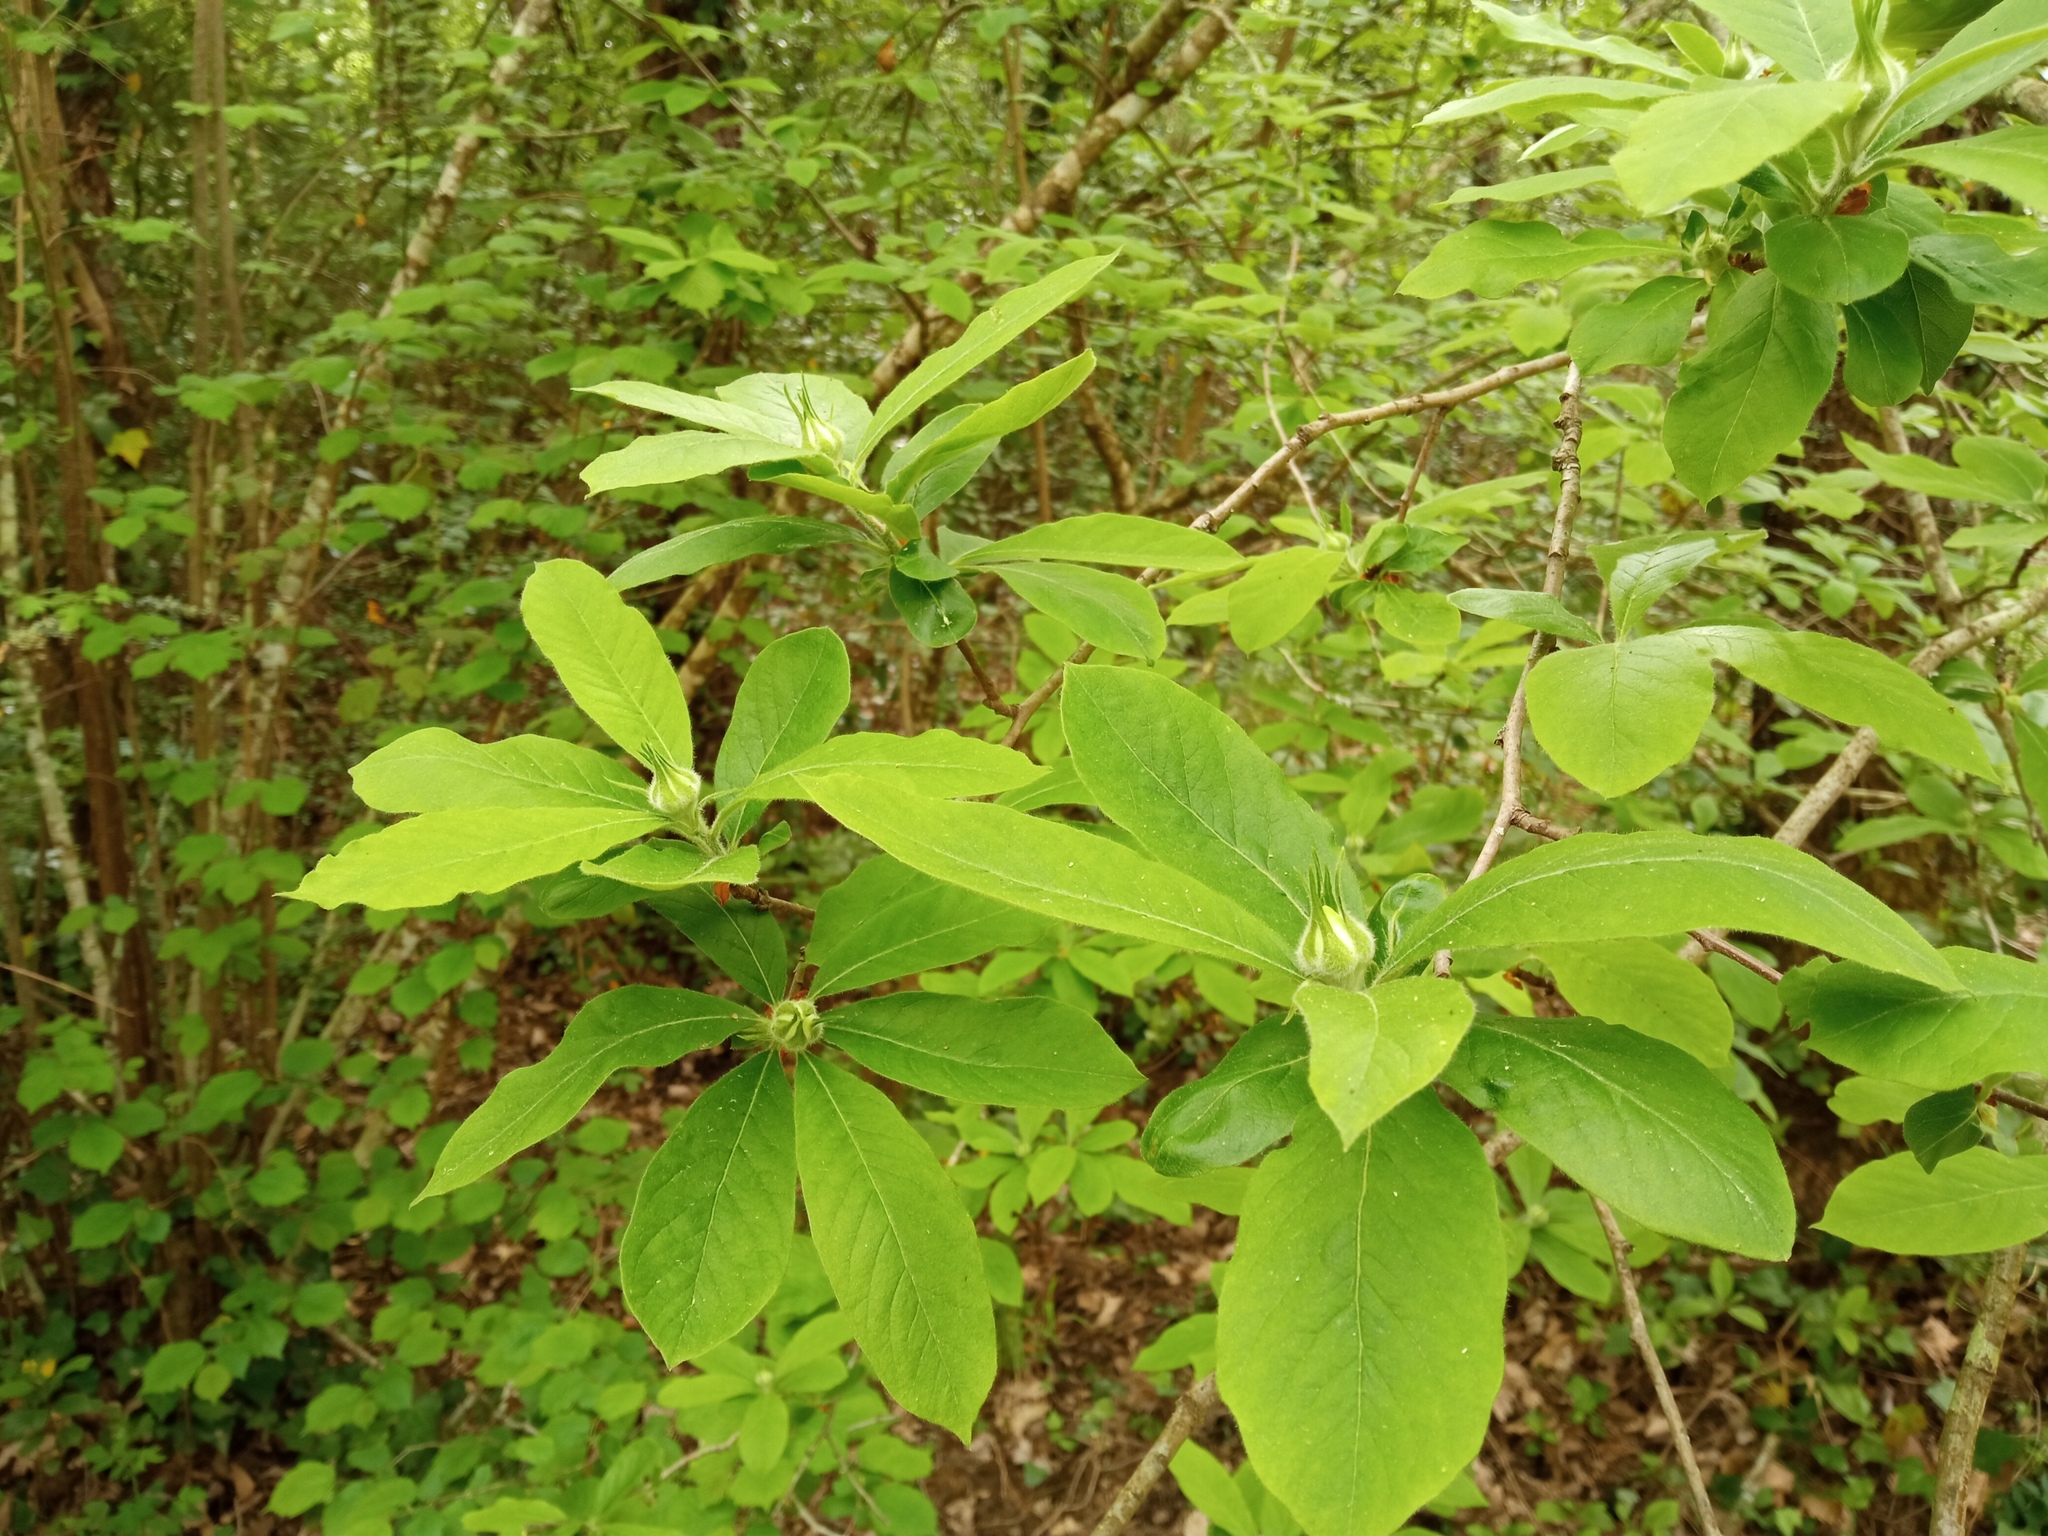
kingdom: Plantae
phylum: Tracheophyta
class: Magnoliopsida
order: Rosales
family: Rosaceae
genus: Mespilus
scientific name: Mespilus germanica
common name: Medlar
